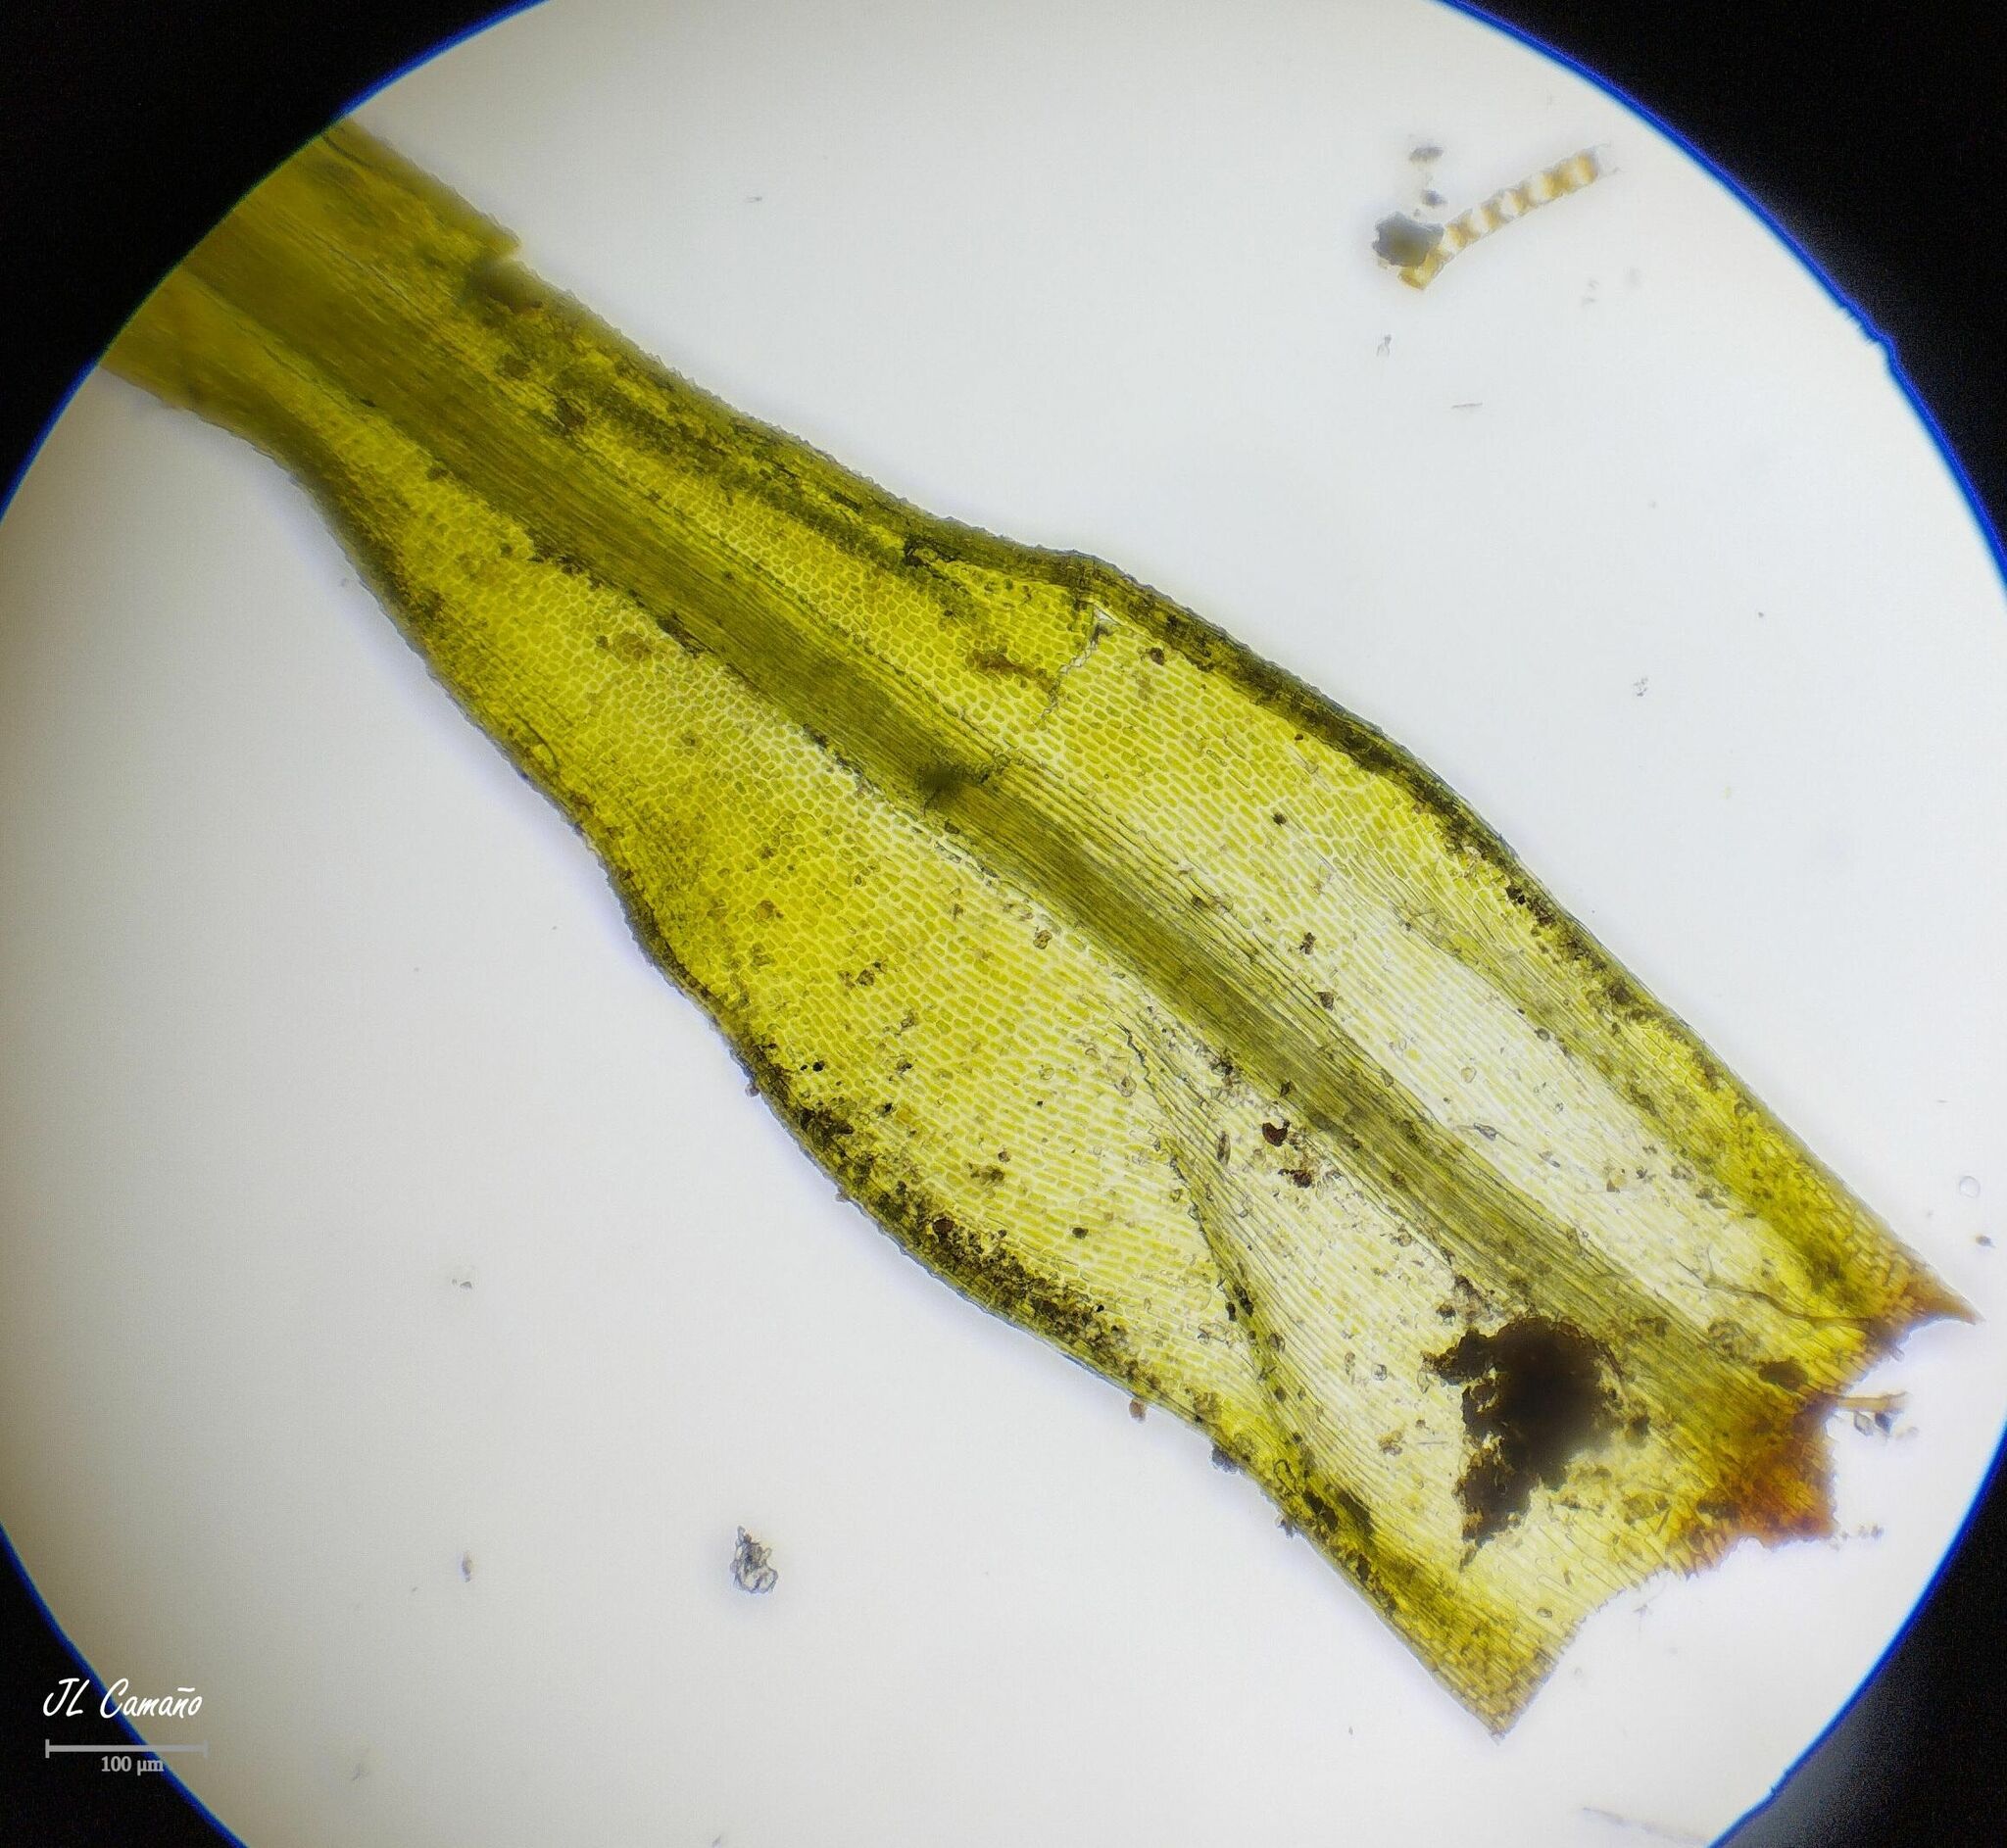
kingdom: Plantae
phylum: Bryophyta
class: Bryopsida
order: Bartramiales
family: Bartramiaceae
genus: Bartramia
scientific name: Bartramia ithyphylla
